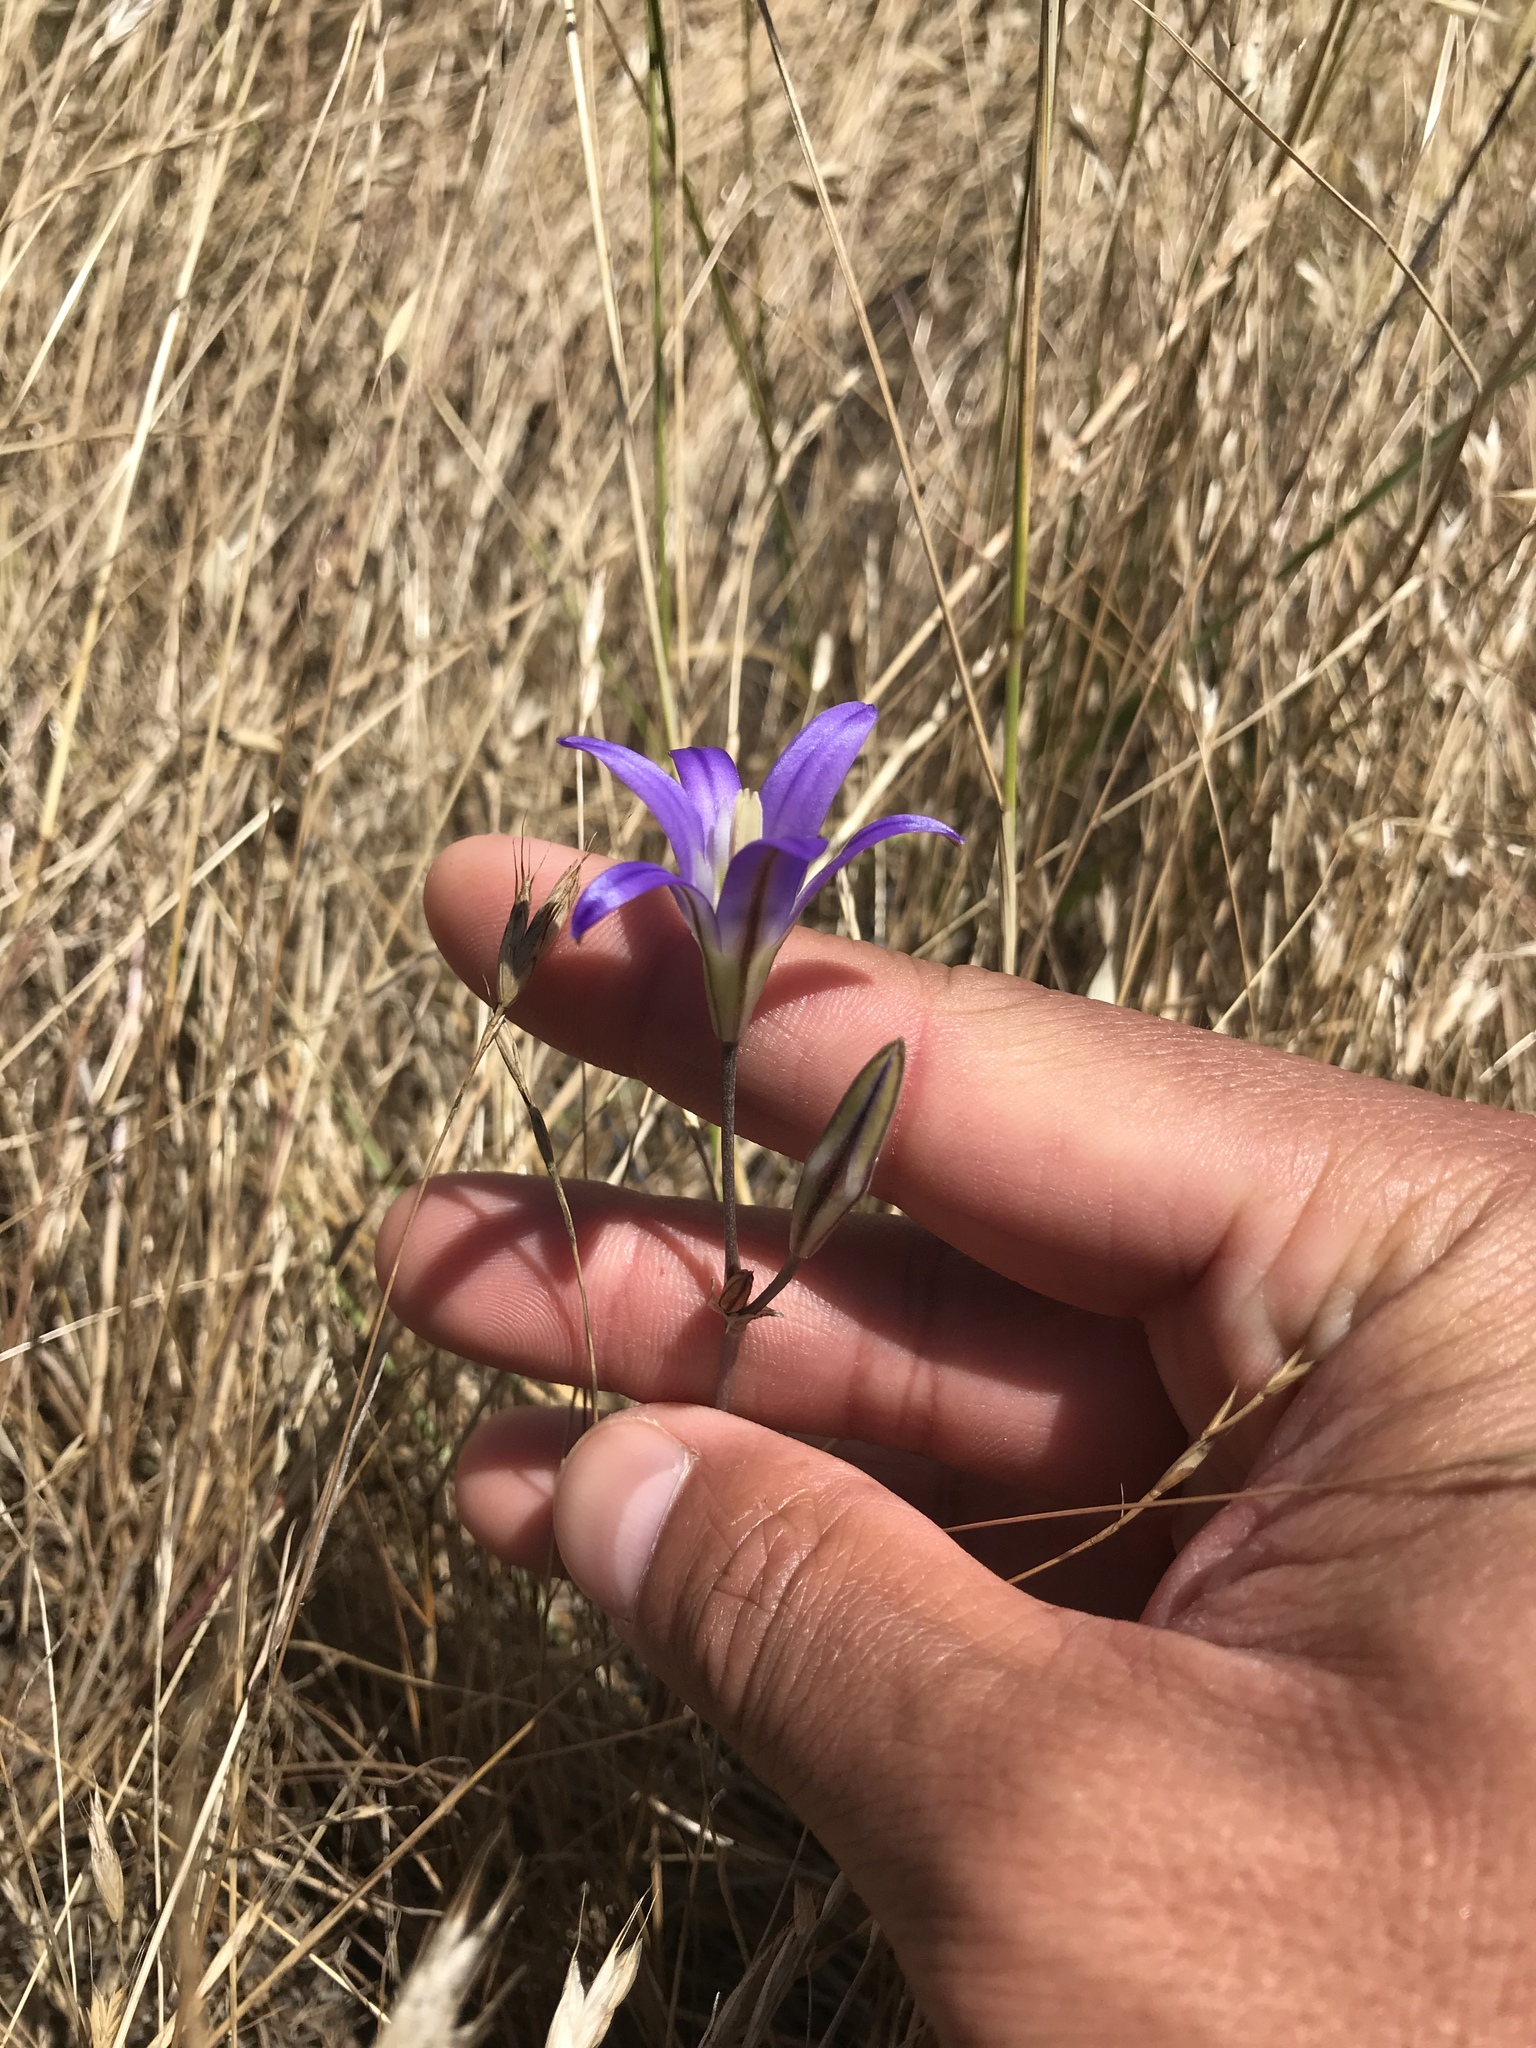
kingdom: Plantae
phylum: Tracheophyta
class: Liliopsida
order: Asparagales
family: Asparagaceae
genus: Brodiaea
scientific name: Brodiaea elegans
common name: Elegant cluster-lily
